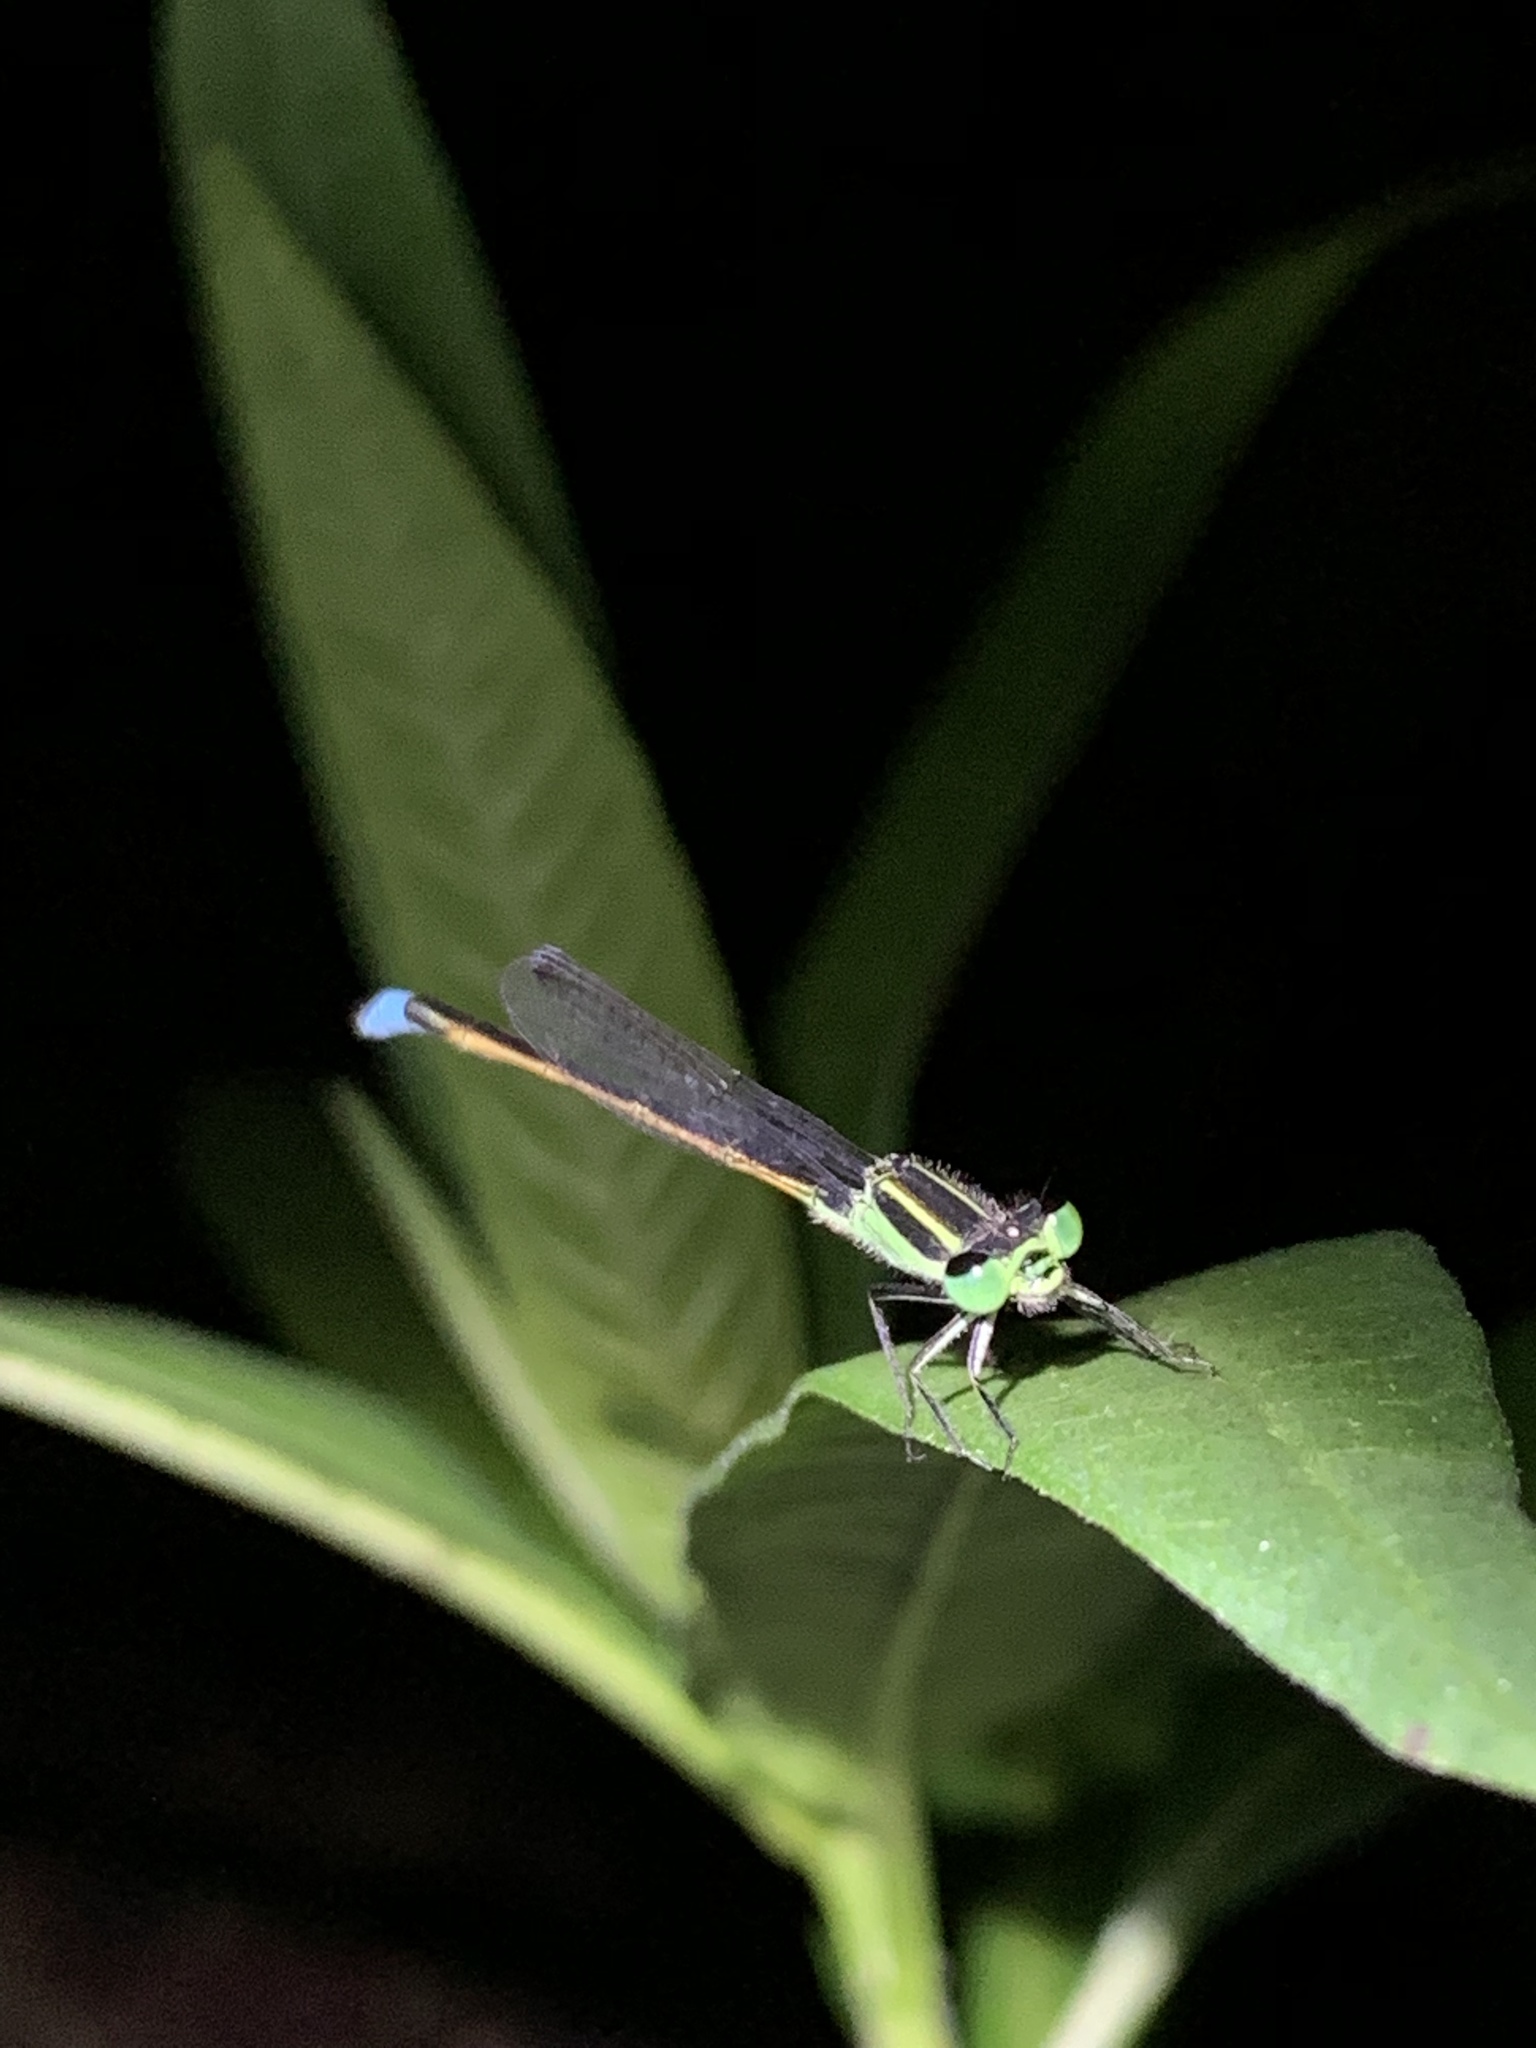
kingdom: Animalia
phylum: Arthropoda
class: Insecta
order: Odonata
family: Coenagrionidae
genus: Ischnura
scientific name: Ischnura ramburii
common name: Rambur's forktail
